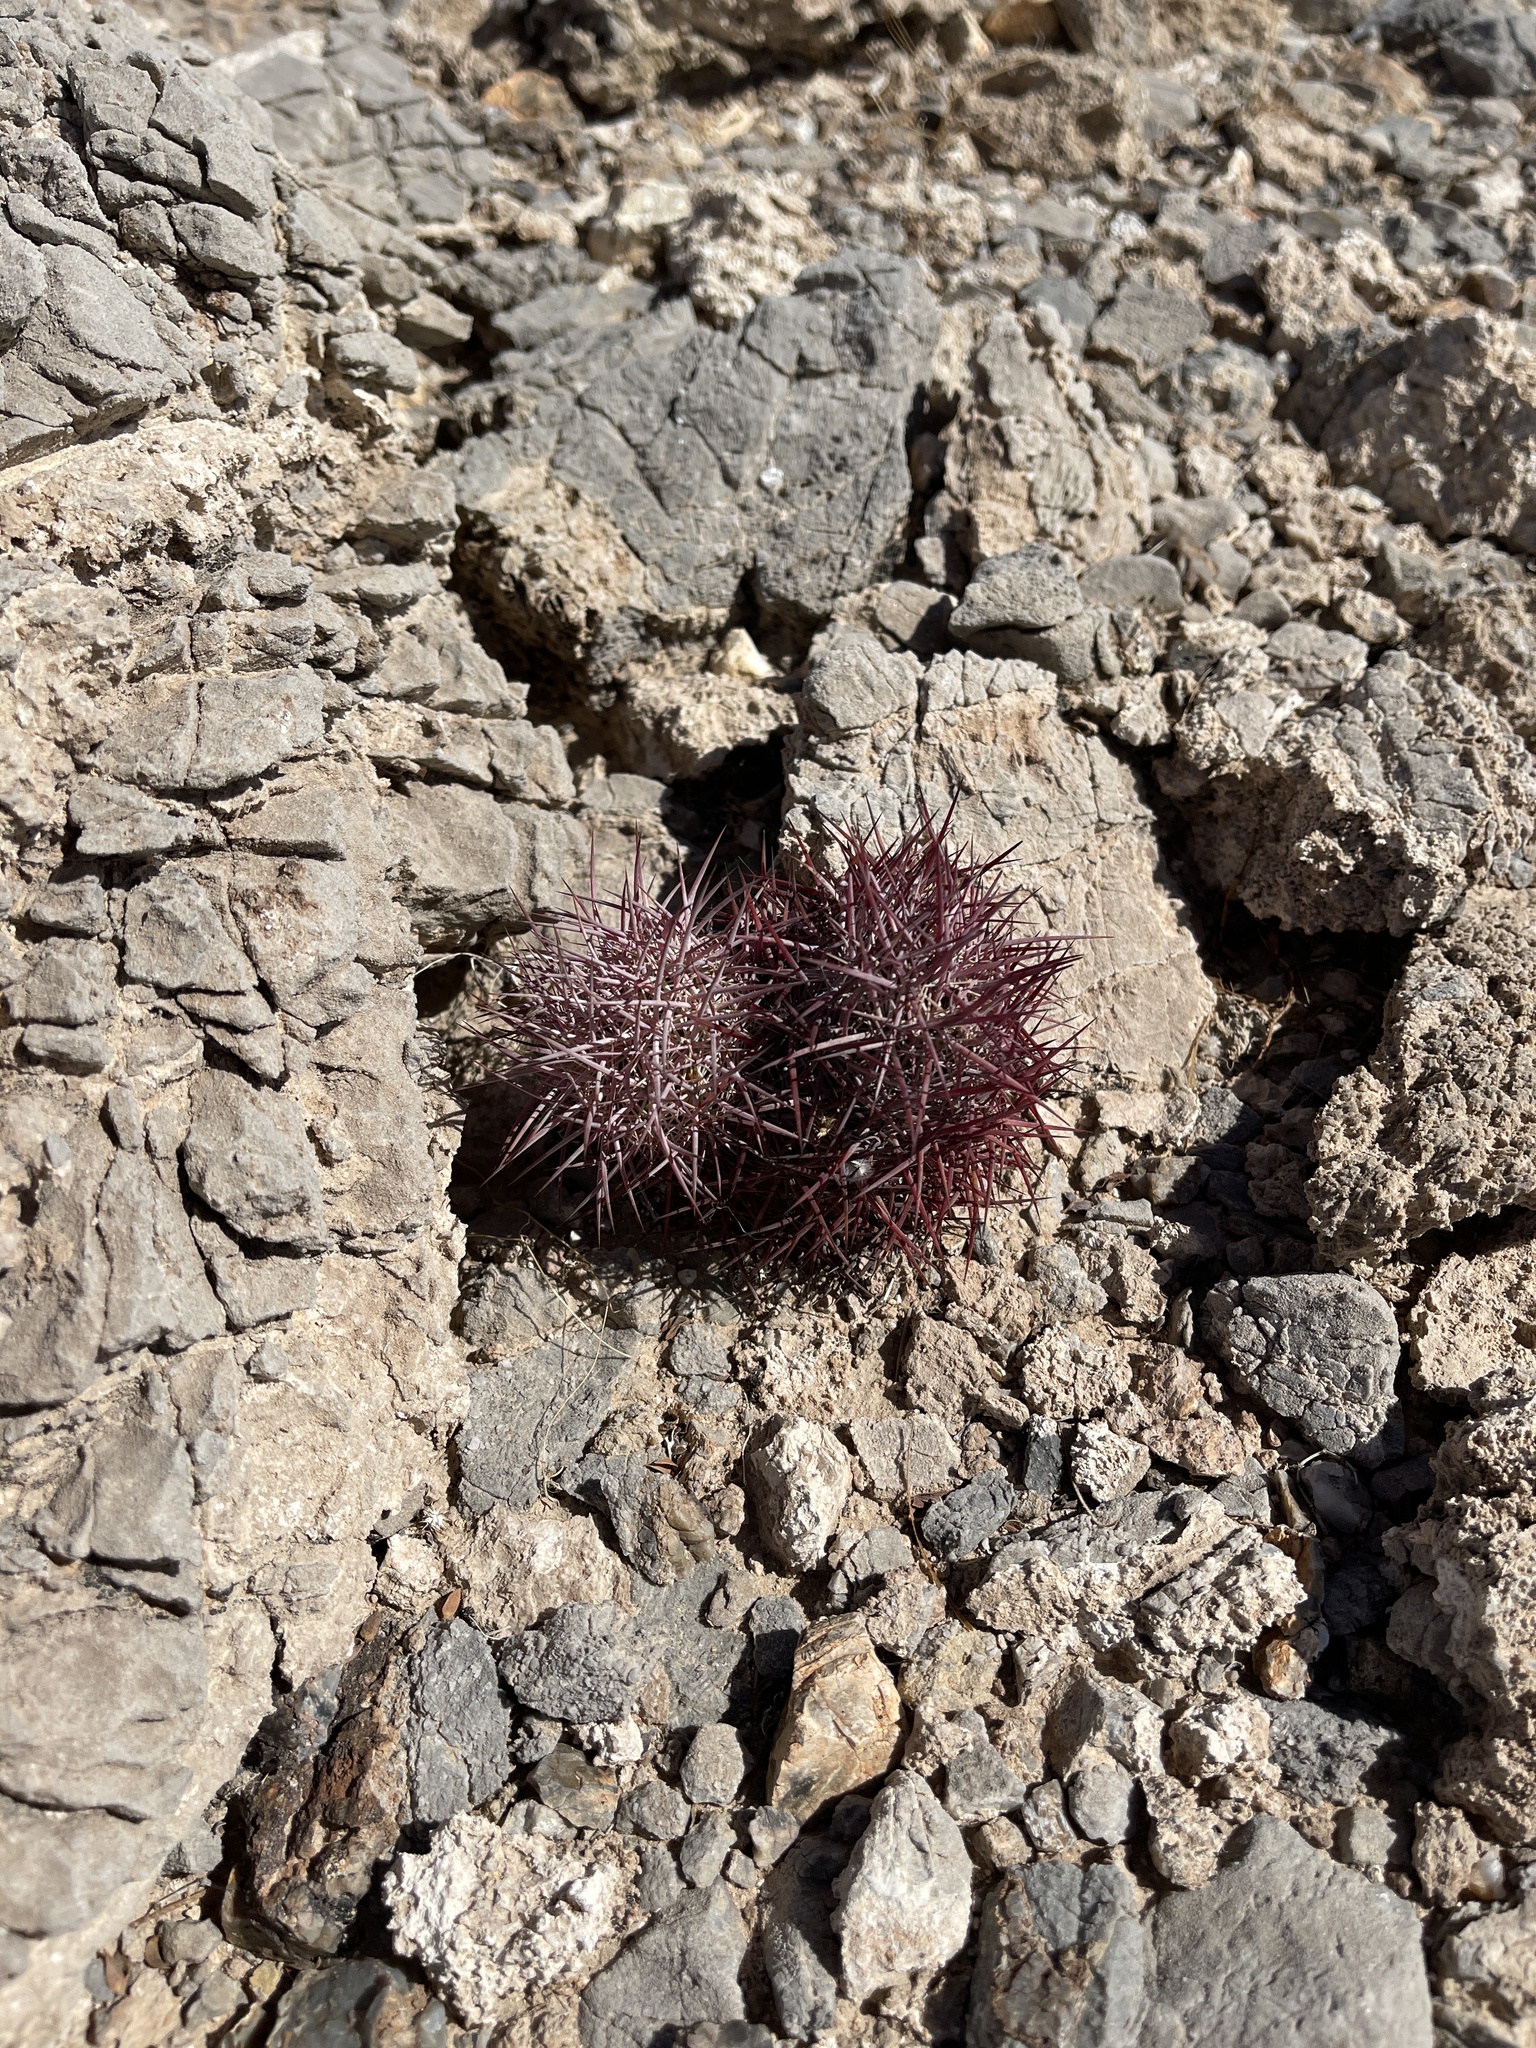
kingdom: Plantae
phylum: Tracheophyta
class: Magnoliopsida
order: Caryophyllales
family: Cactaceae
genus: Sclerocactus
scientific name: Sclerocactus johnsonii
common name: Eight-spine fishhook cactus
